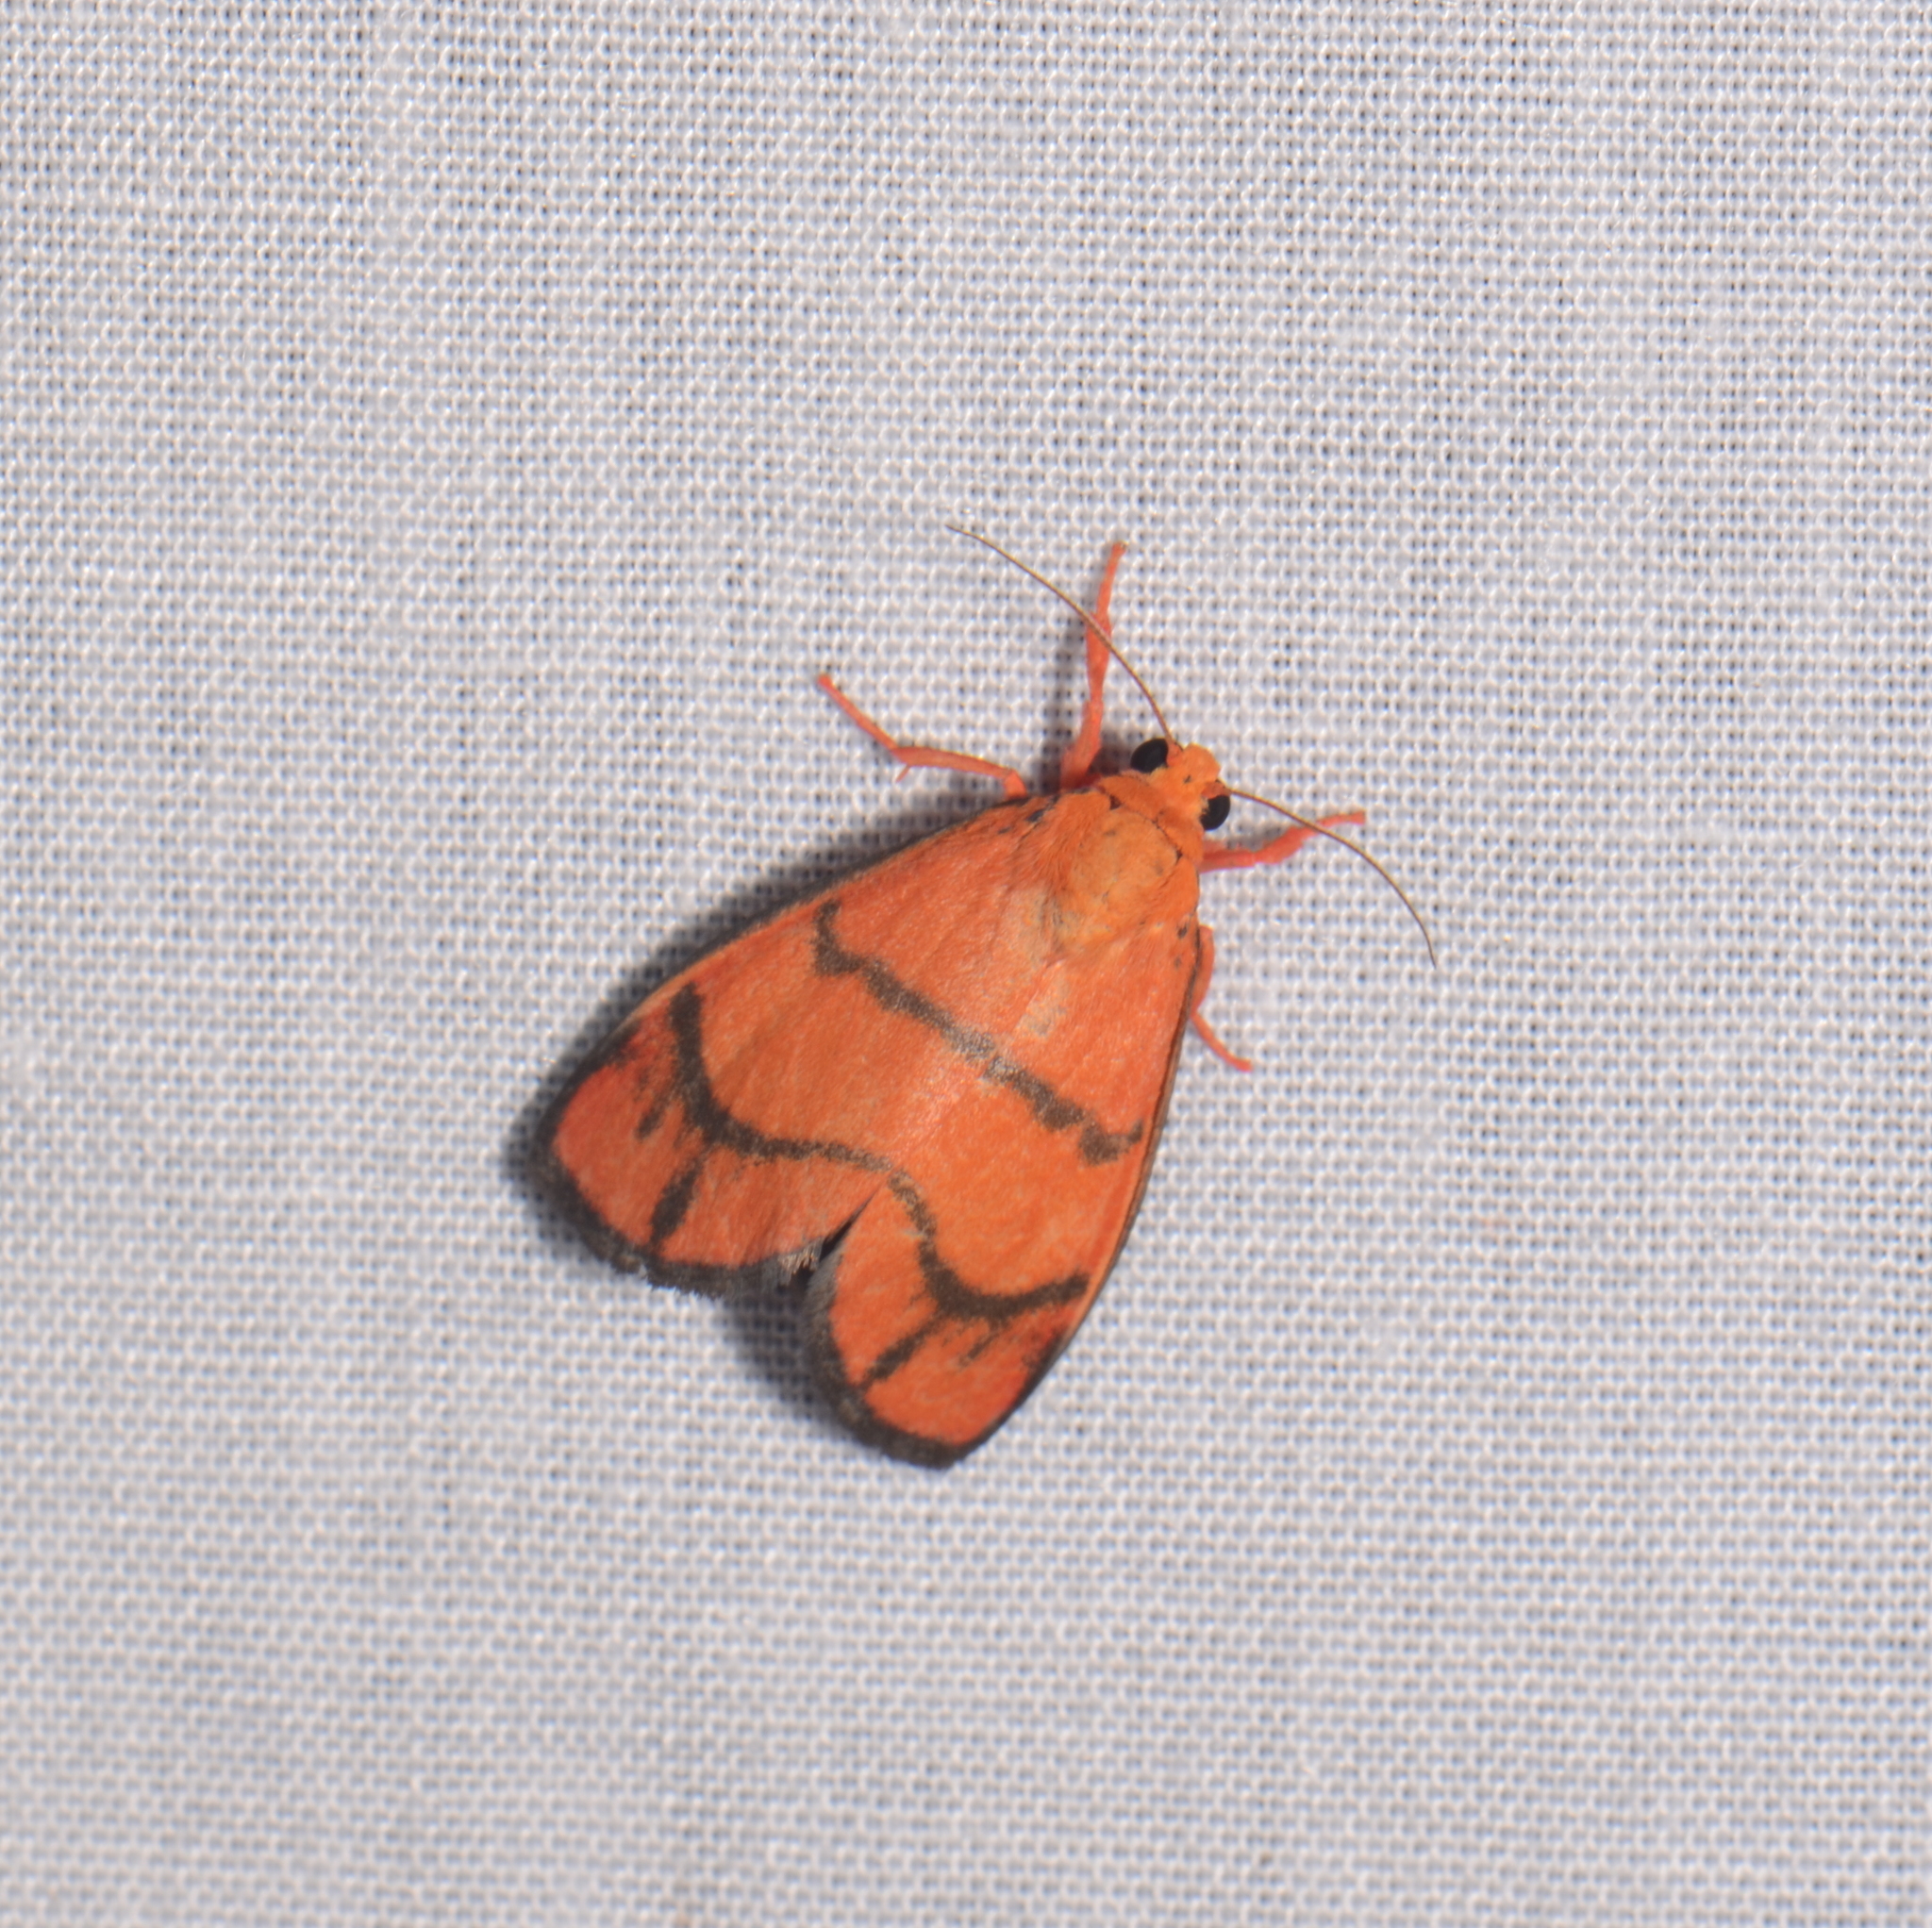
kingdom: Animalia
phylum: Arthropoda
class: Insecta
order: Lepidoptera
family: Erebidae
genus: Wittasura
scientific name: Wittasura lineatus
